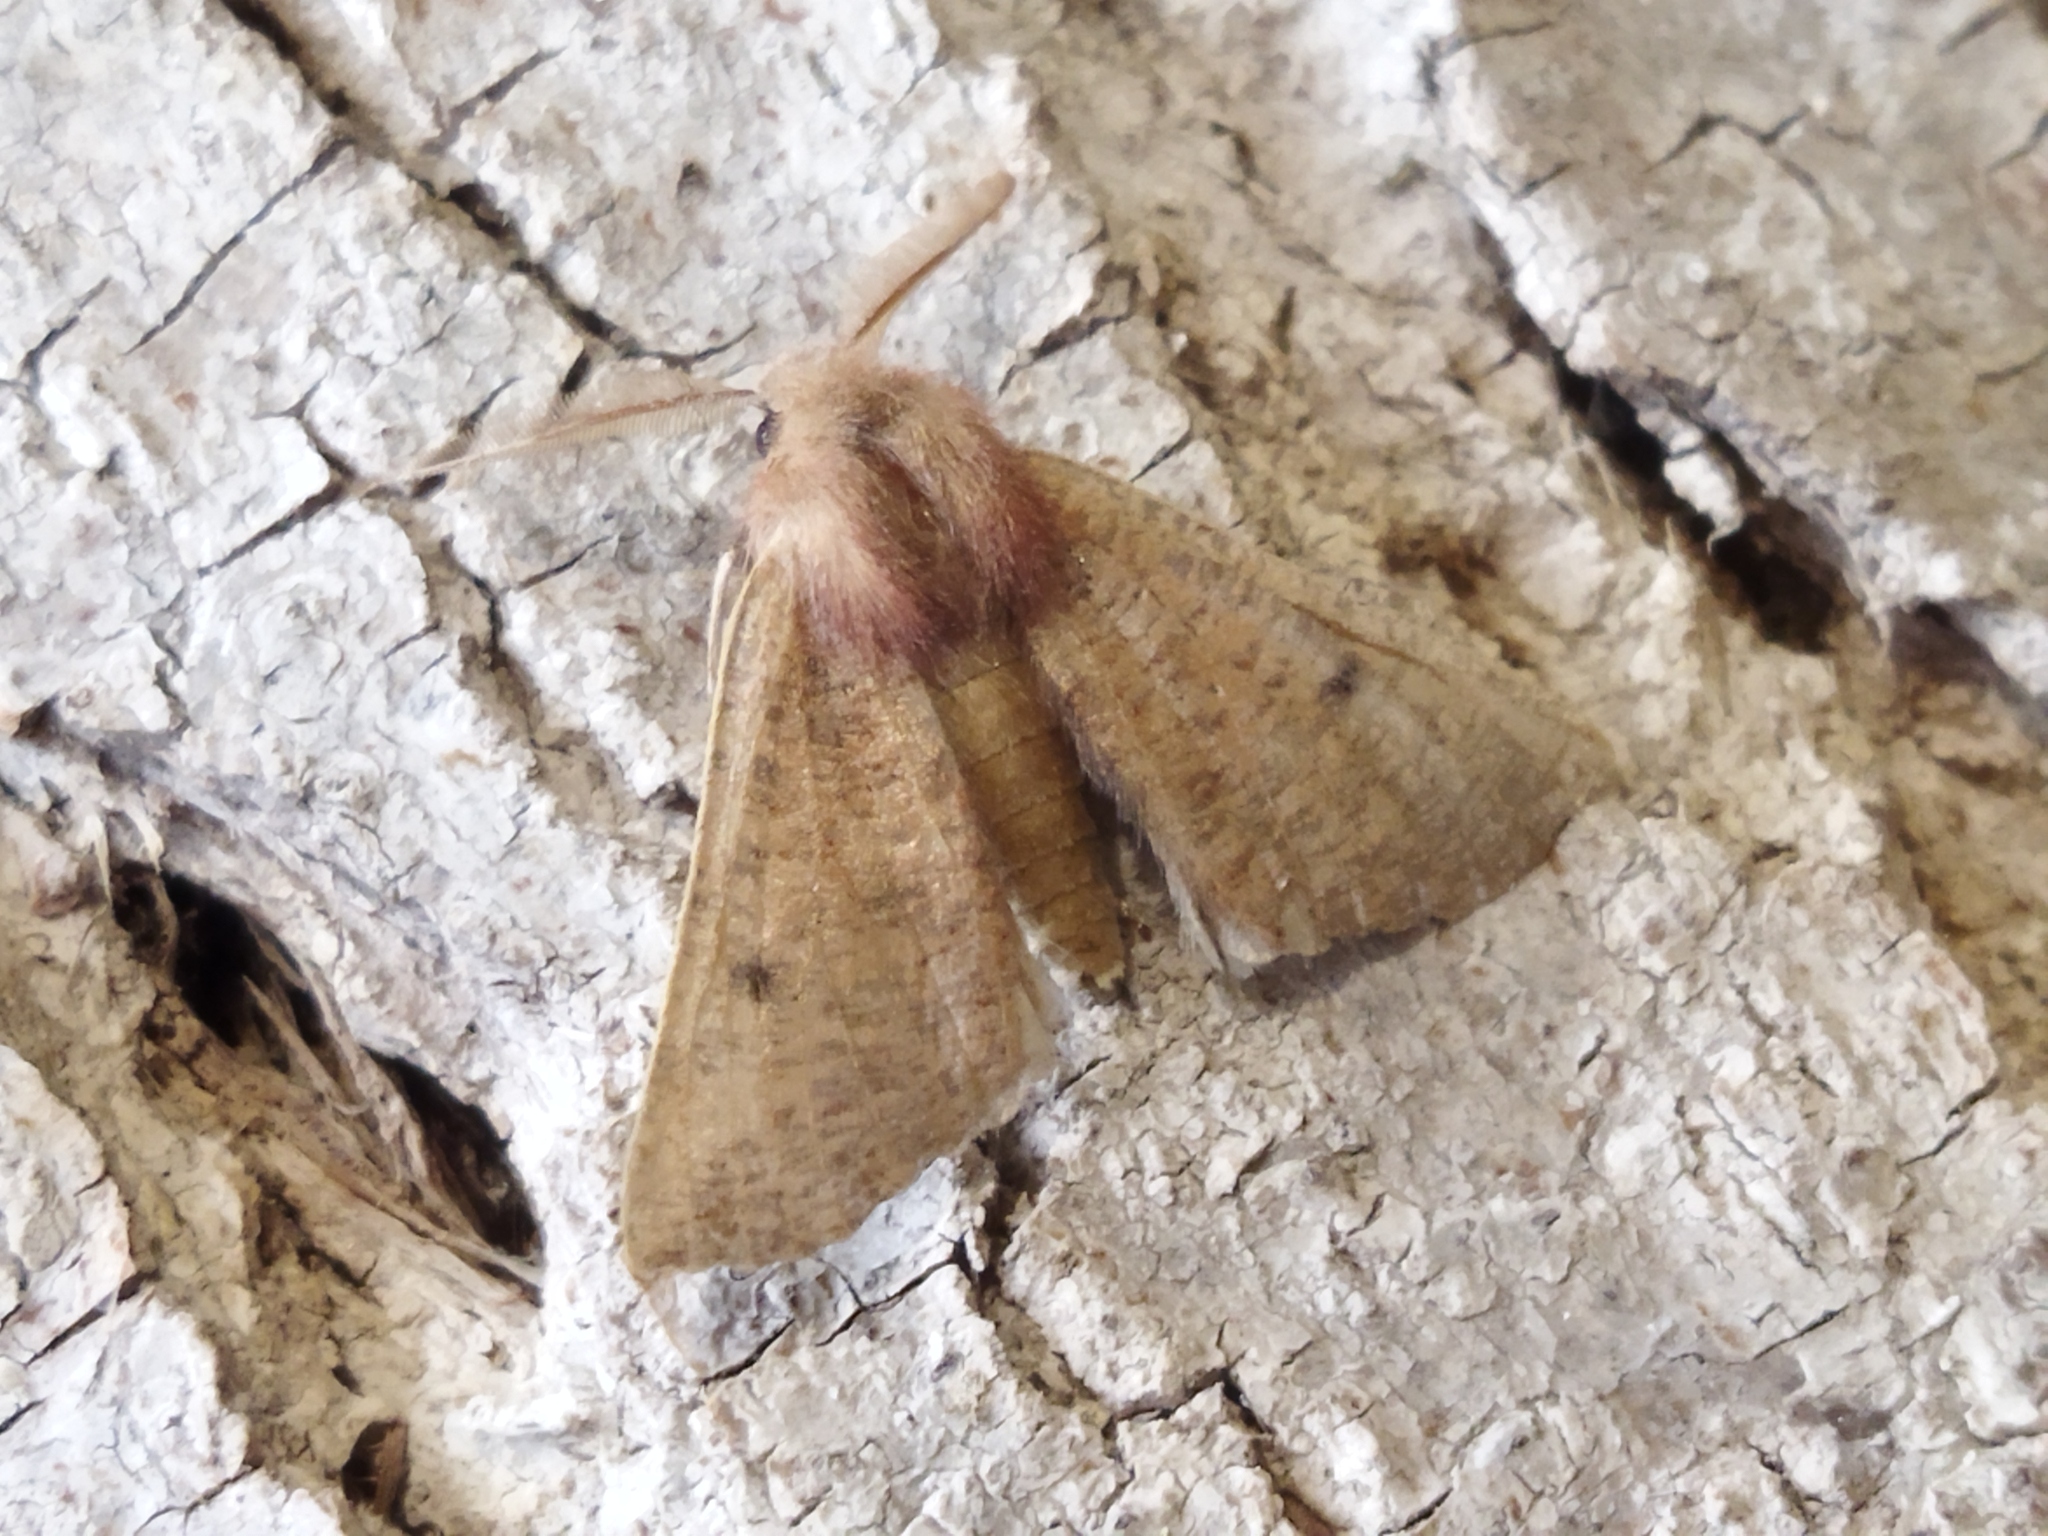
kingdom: Animalia
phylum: Arthropoda
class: Insecta
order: Lepidoptera
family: Geometridae
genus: Dasycorsa
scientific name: Dasycorsa modesta
